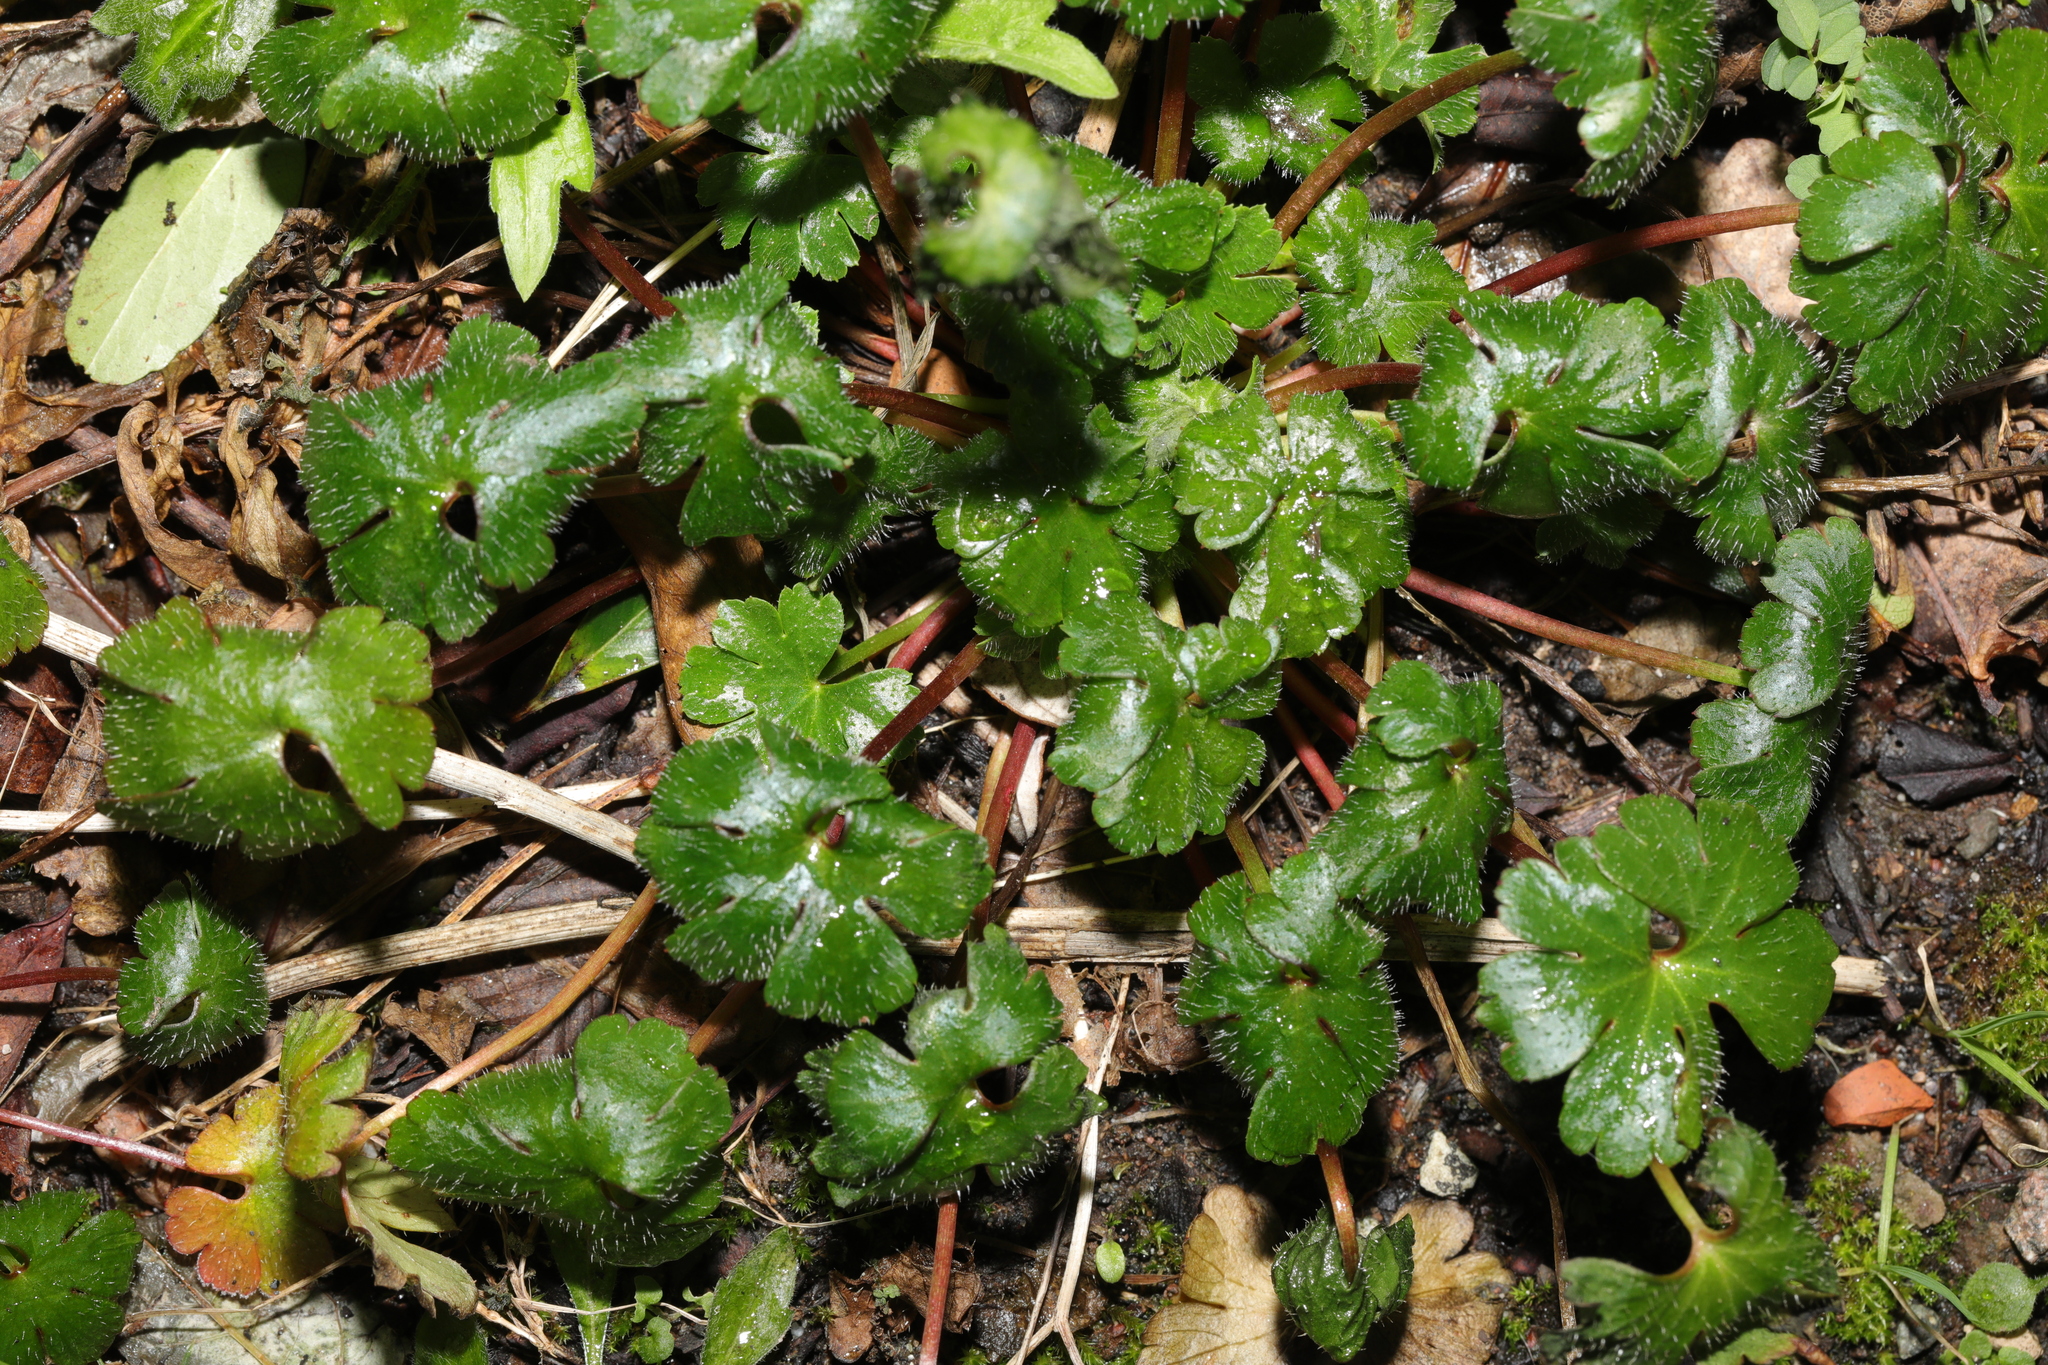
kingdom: Plantae
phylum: Tracheophyta
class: Magnoliopsida
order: Geraniales
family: Geraniaceae
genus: Geranium
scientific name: Geranium lucidum
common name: Shining crane's-bill
